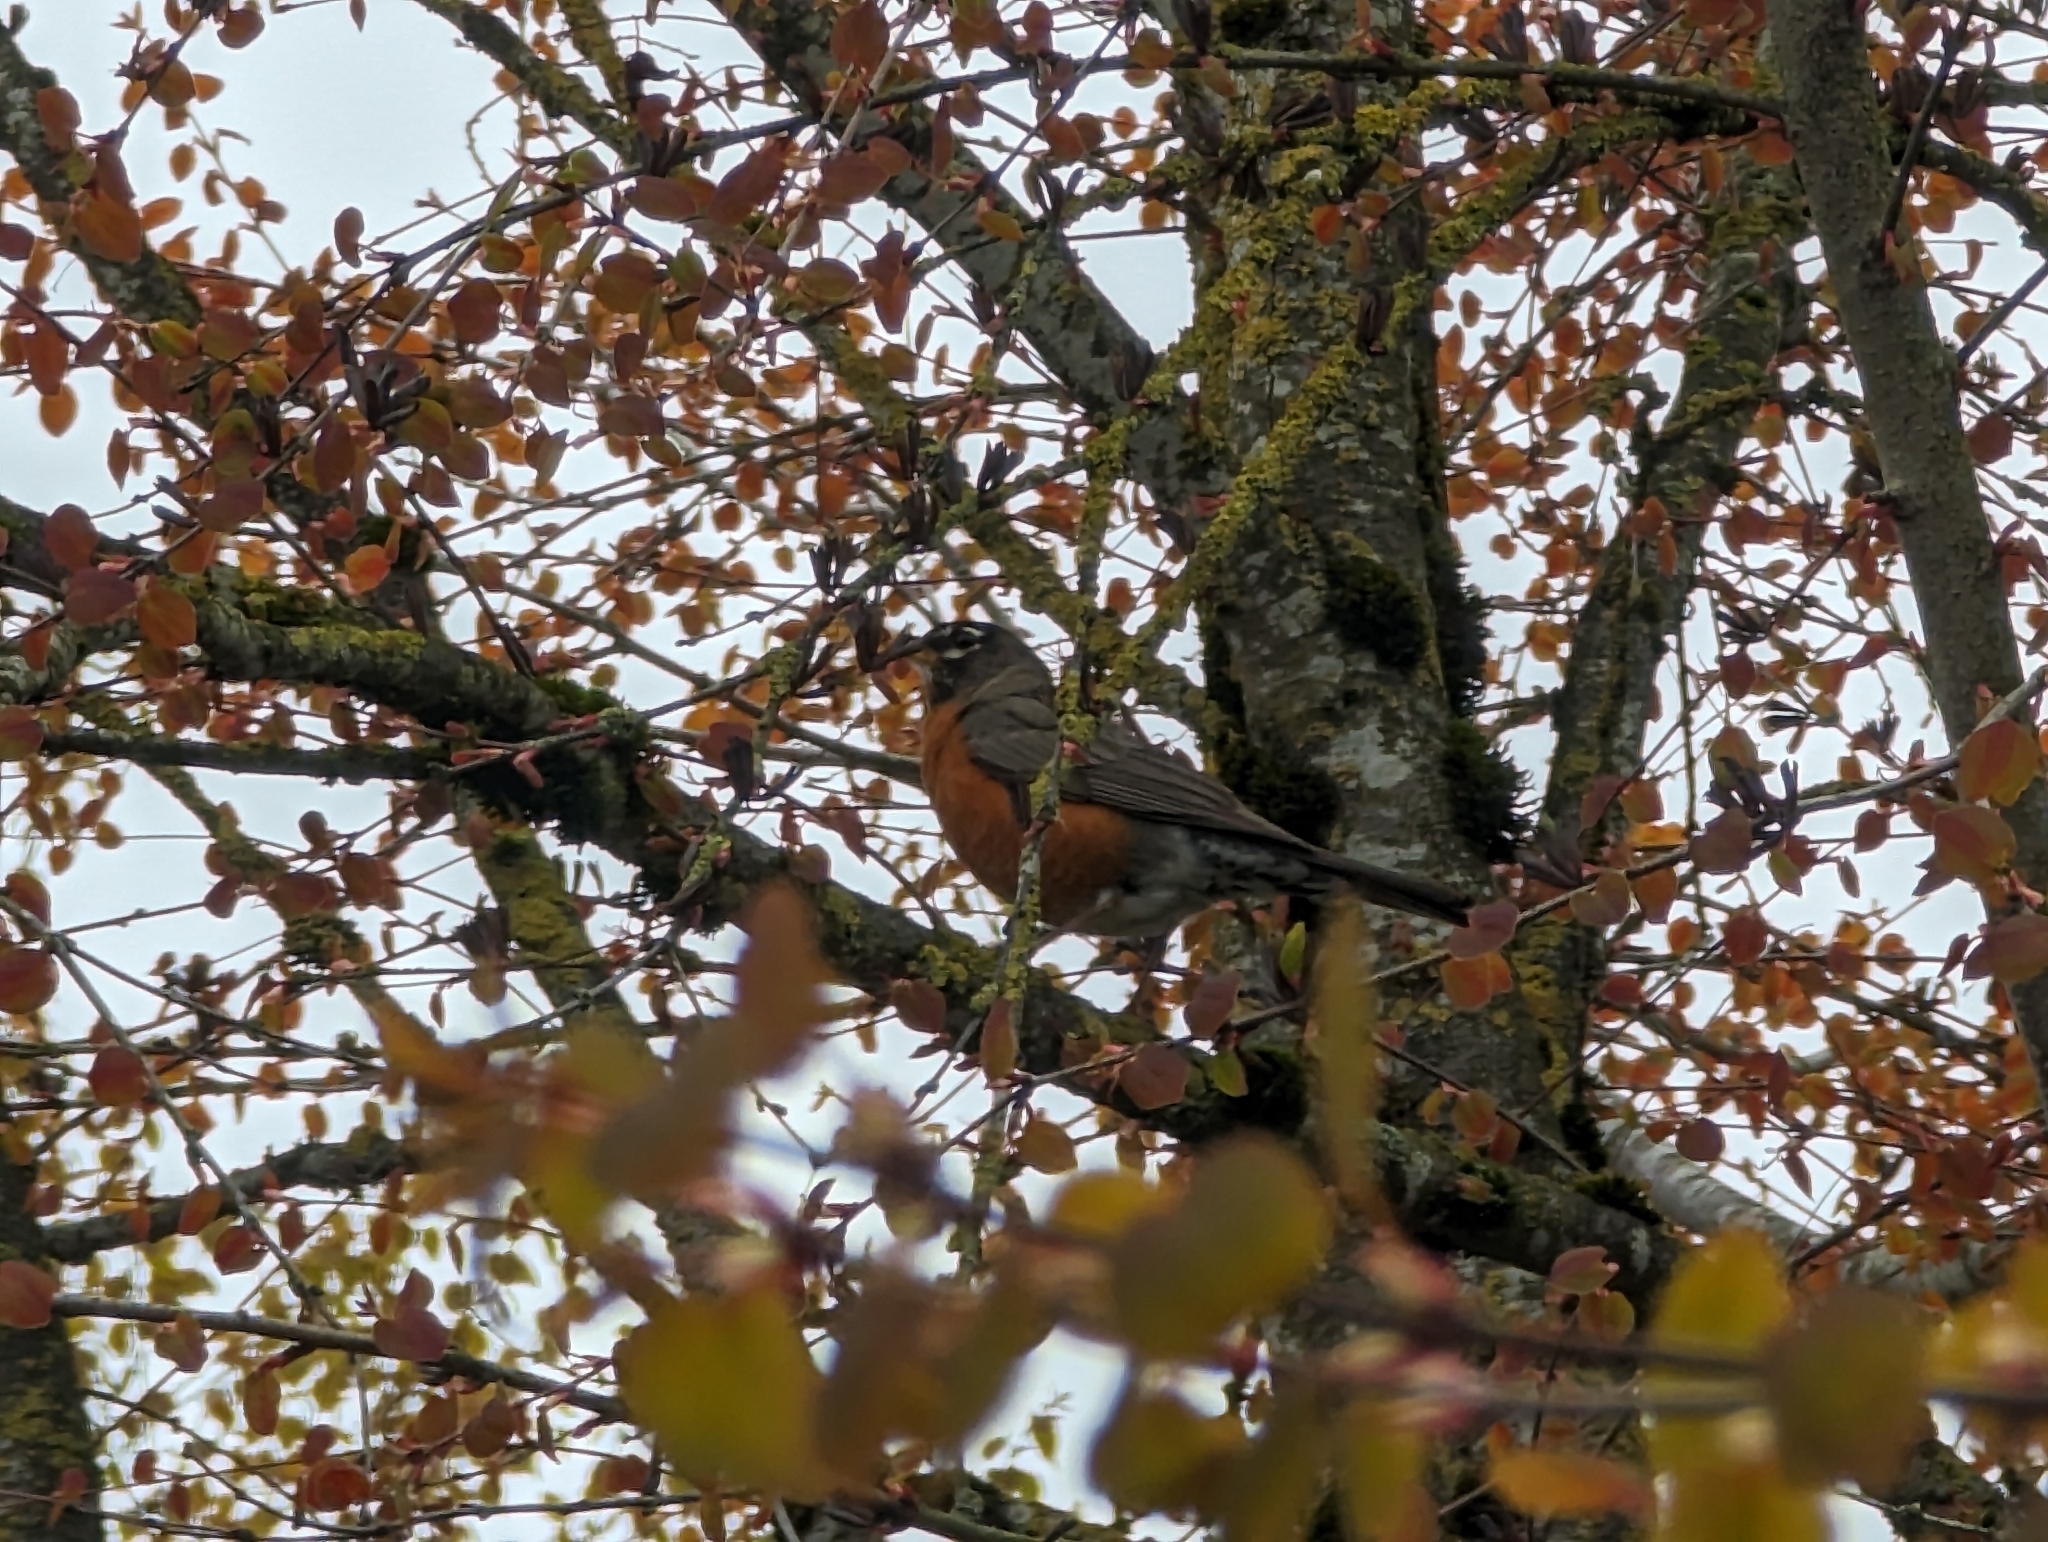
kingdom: Animalia
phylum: Chordata
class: Aves
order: Passeriformes
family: Turdidae
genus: Turdus
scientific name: Turdus migratorius
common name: American robin
